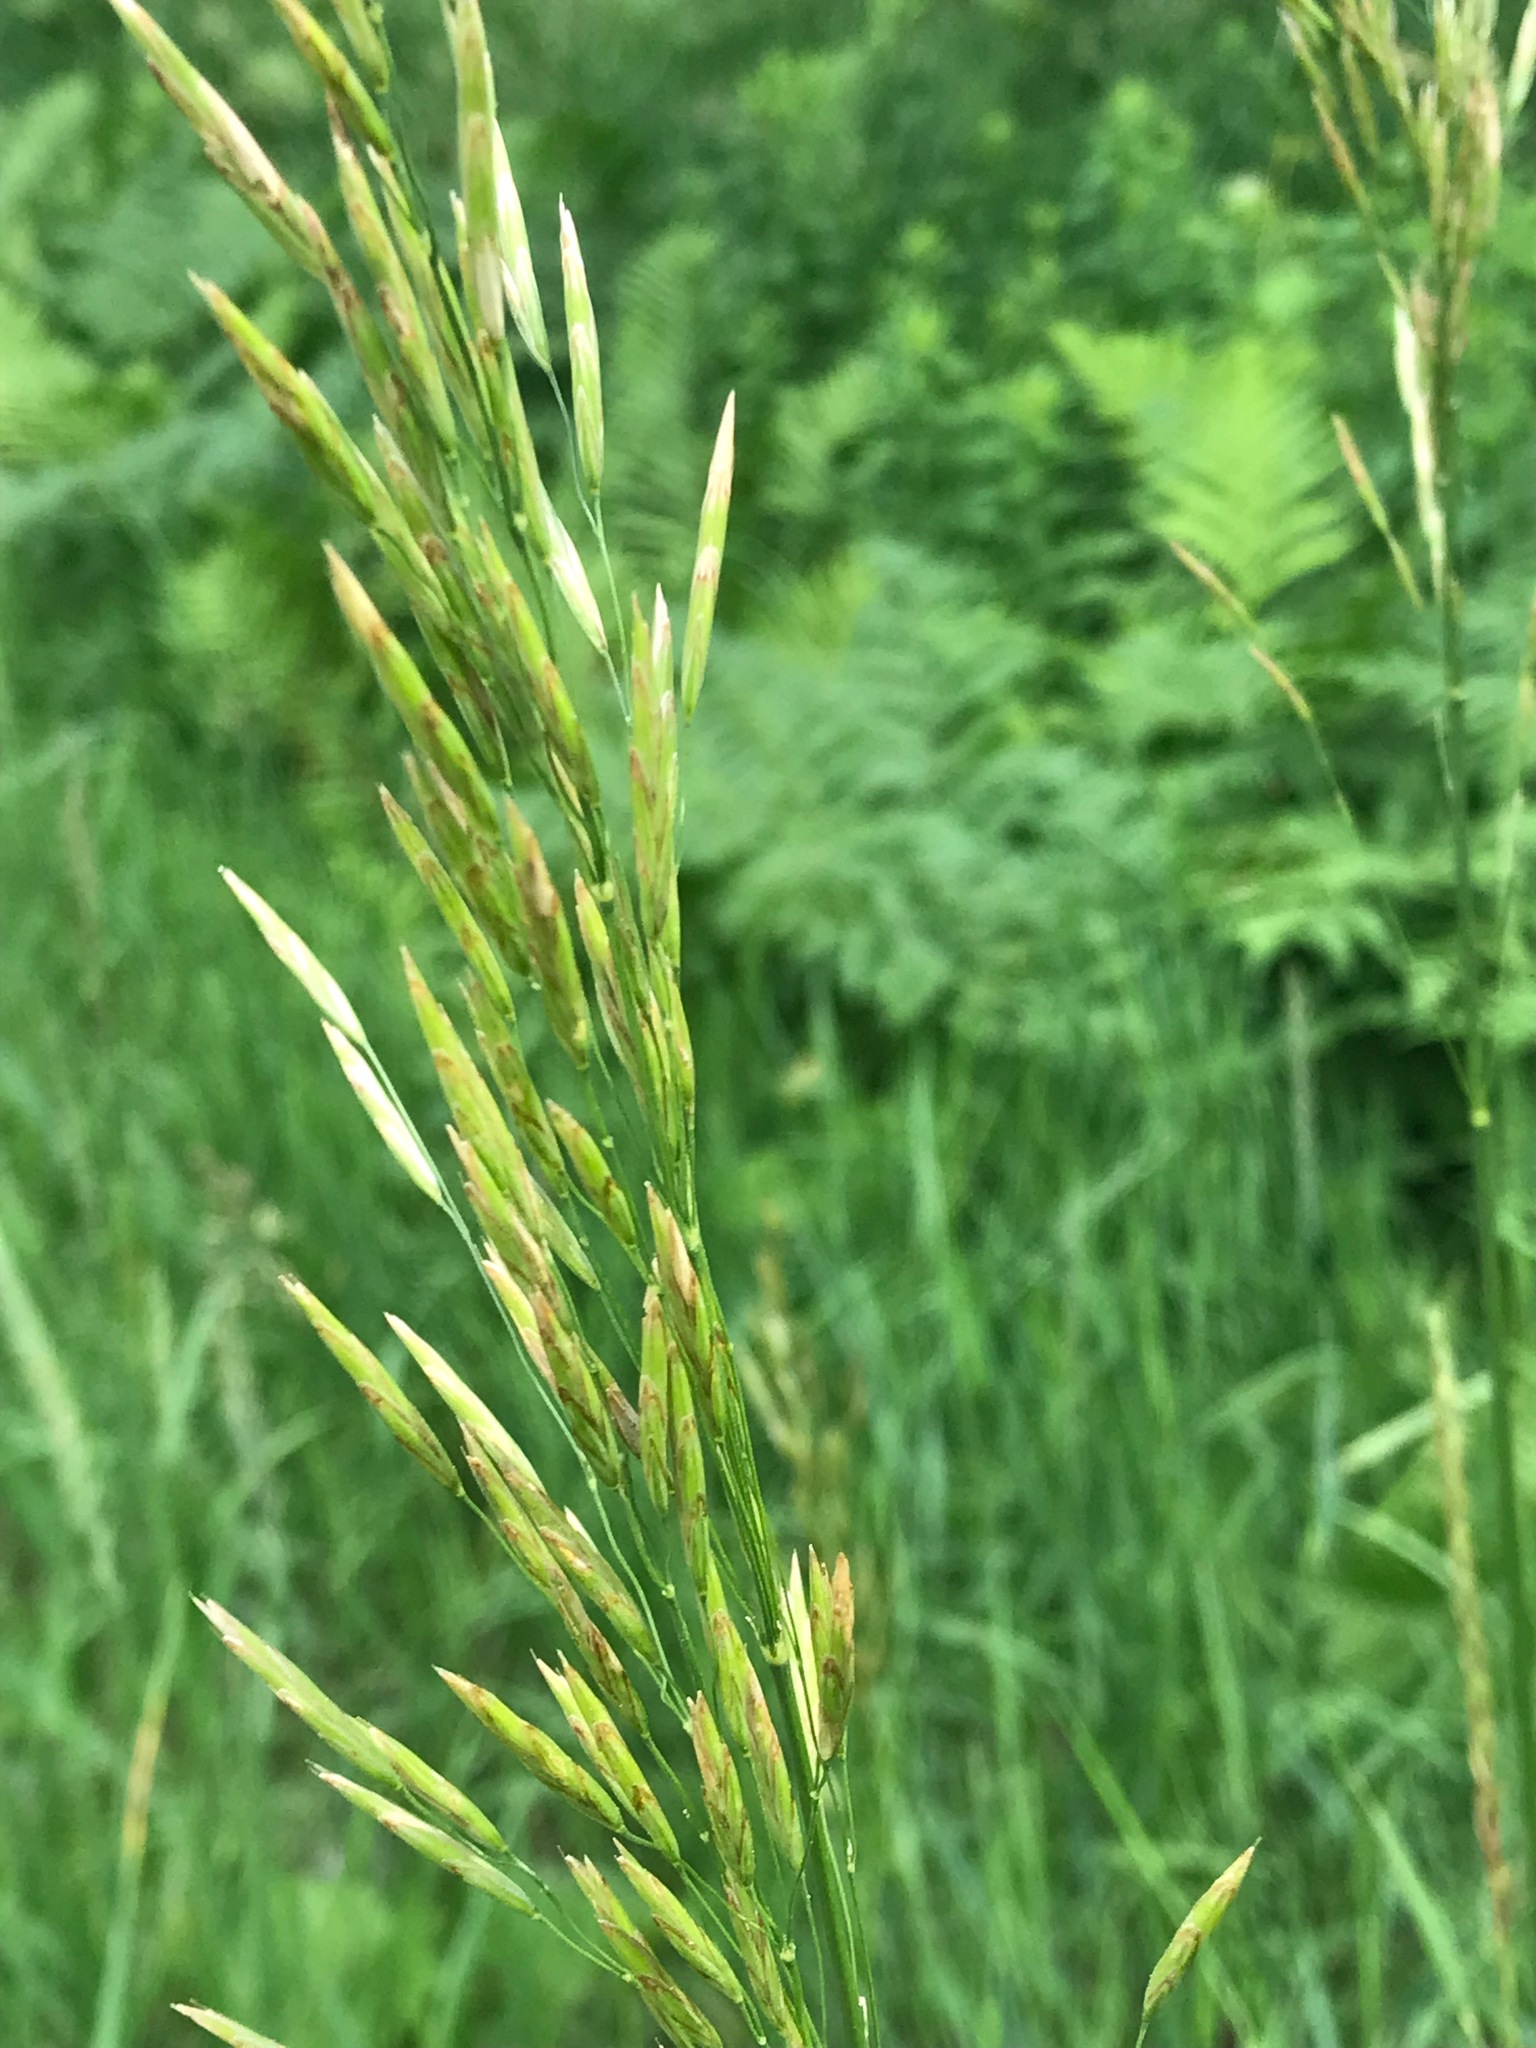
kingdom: Plantae
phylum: Tracheophyta
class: Liliopsida
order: Poales
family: Poaceae
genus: Bromus
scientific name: Bromus inermis
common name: Smooth brome
